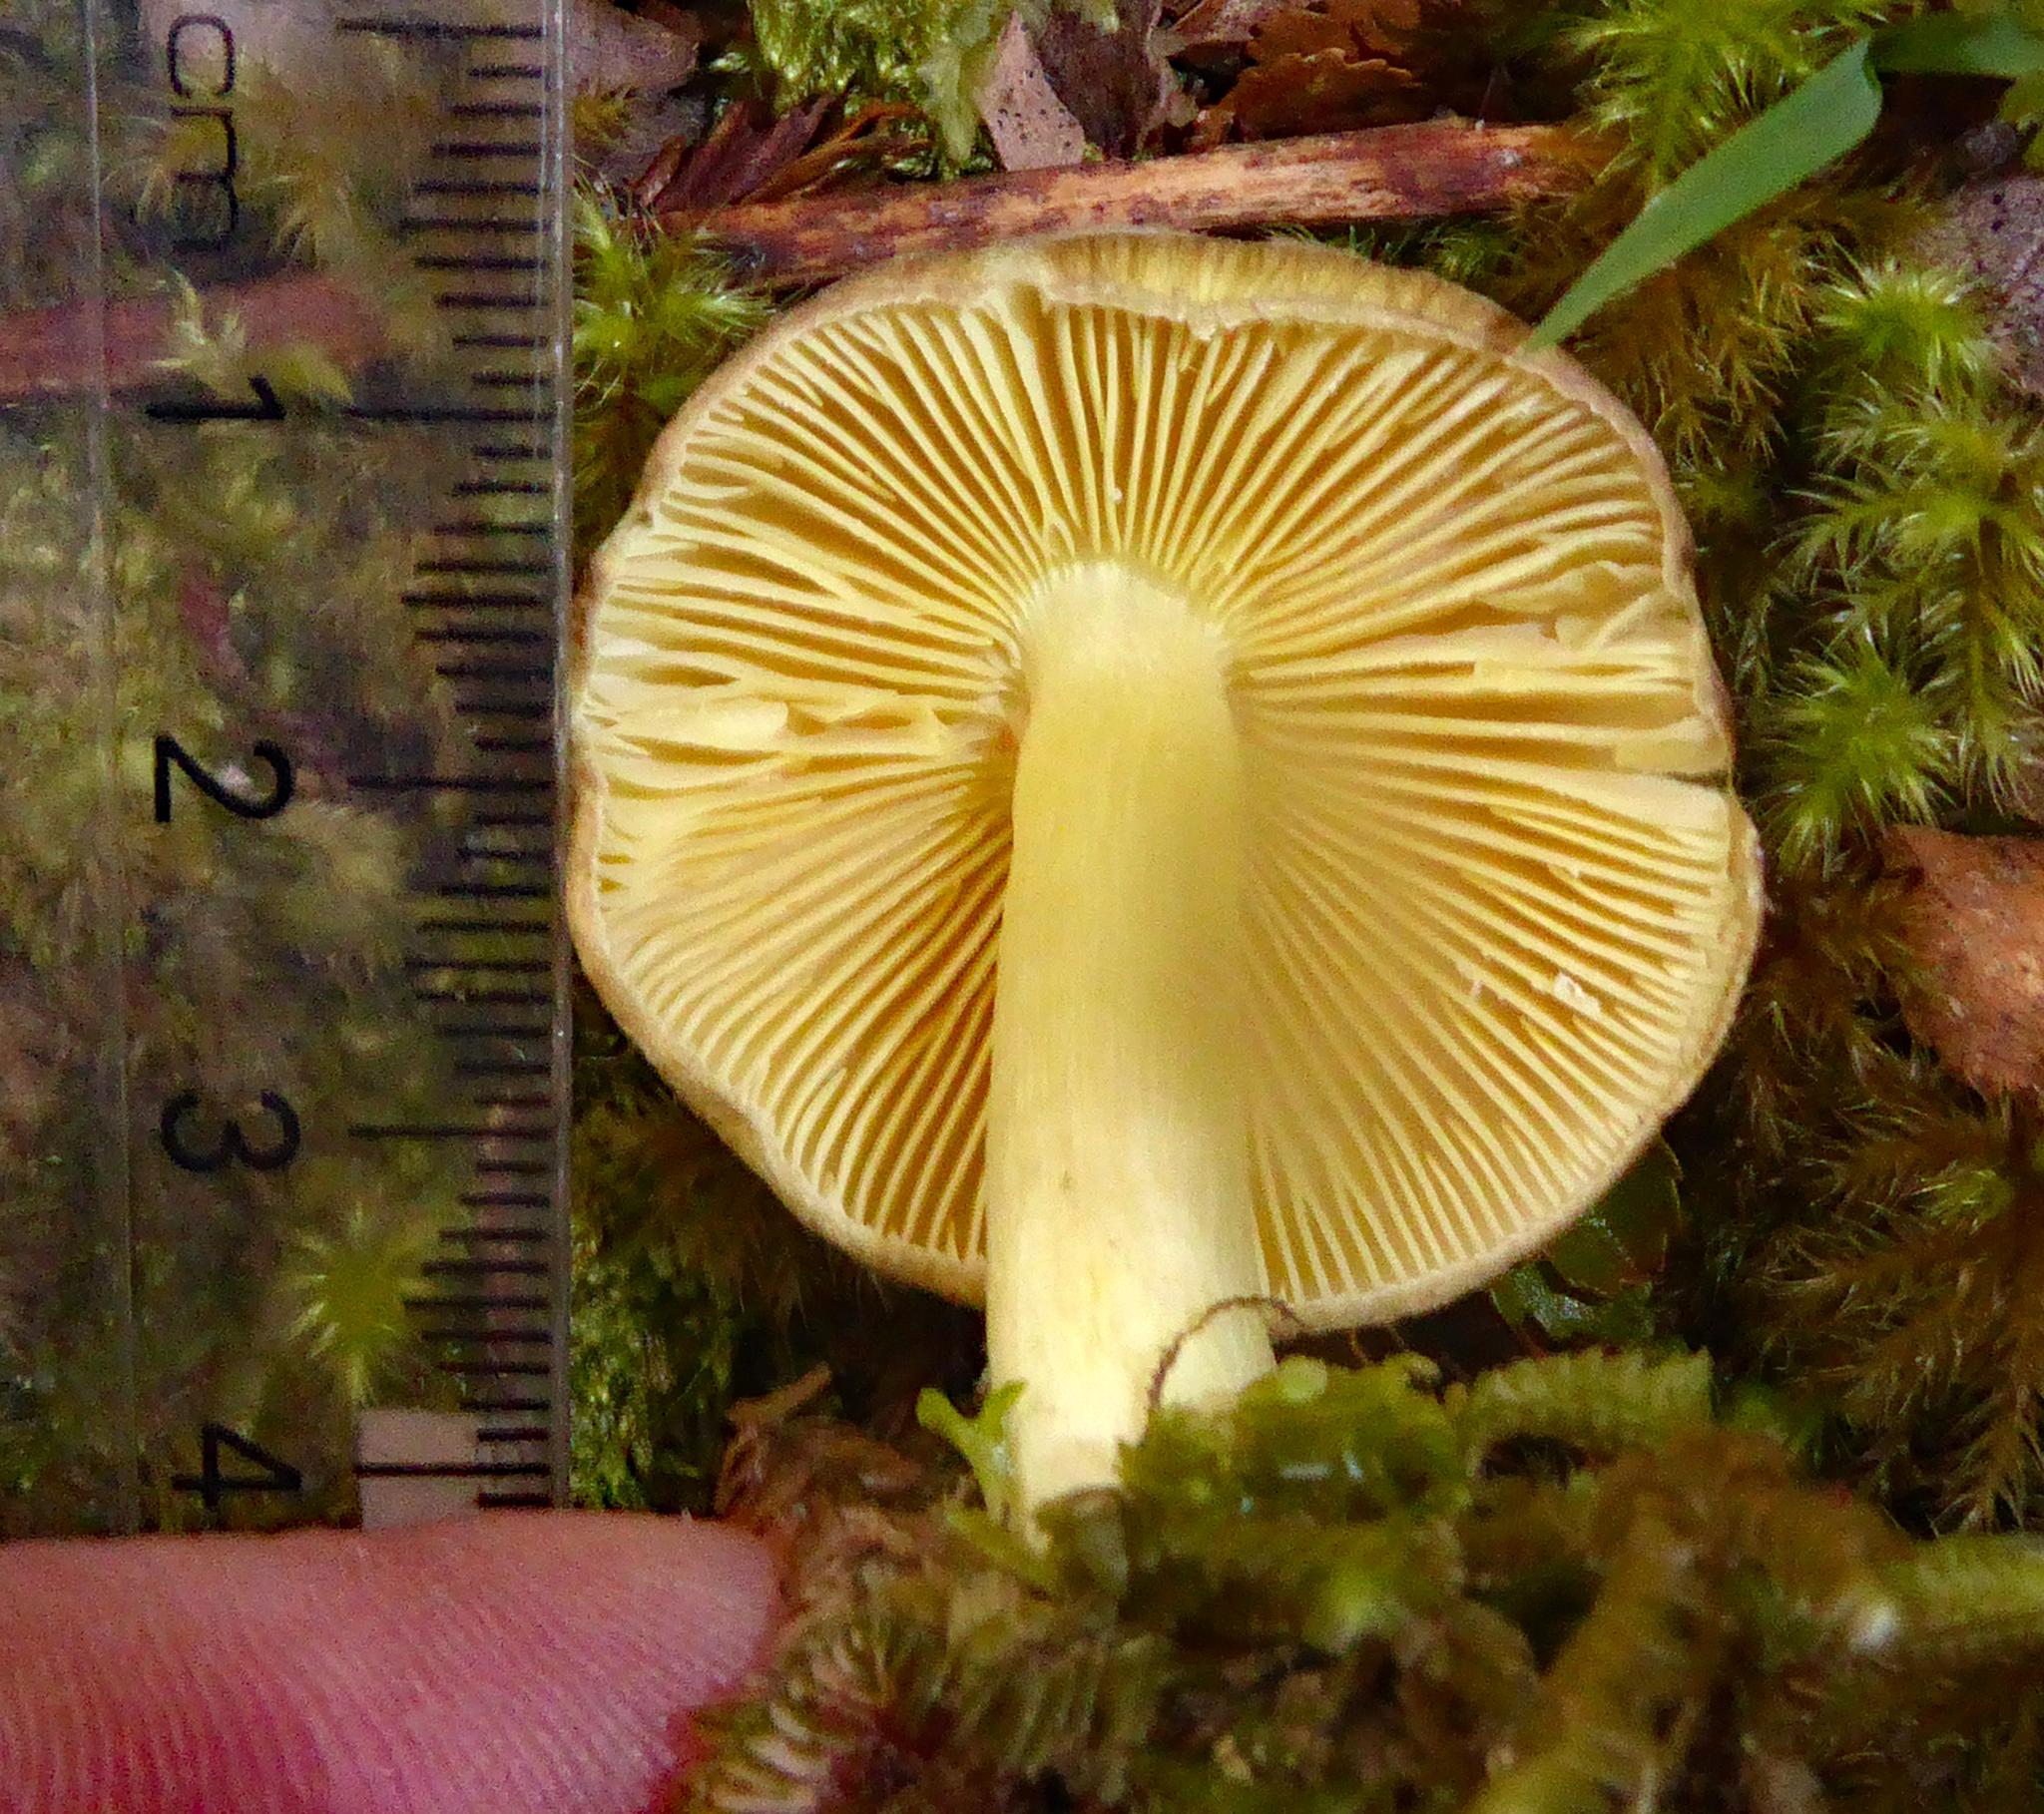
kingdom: Fungi
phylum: Basidiomycota
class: Agaricomycetes
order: Agaricales
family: Tricholomataceae
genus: Porpoloma
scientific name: Porpoloma amyloideum
